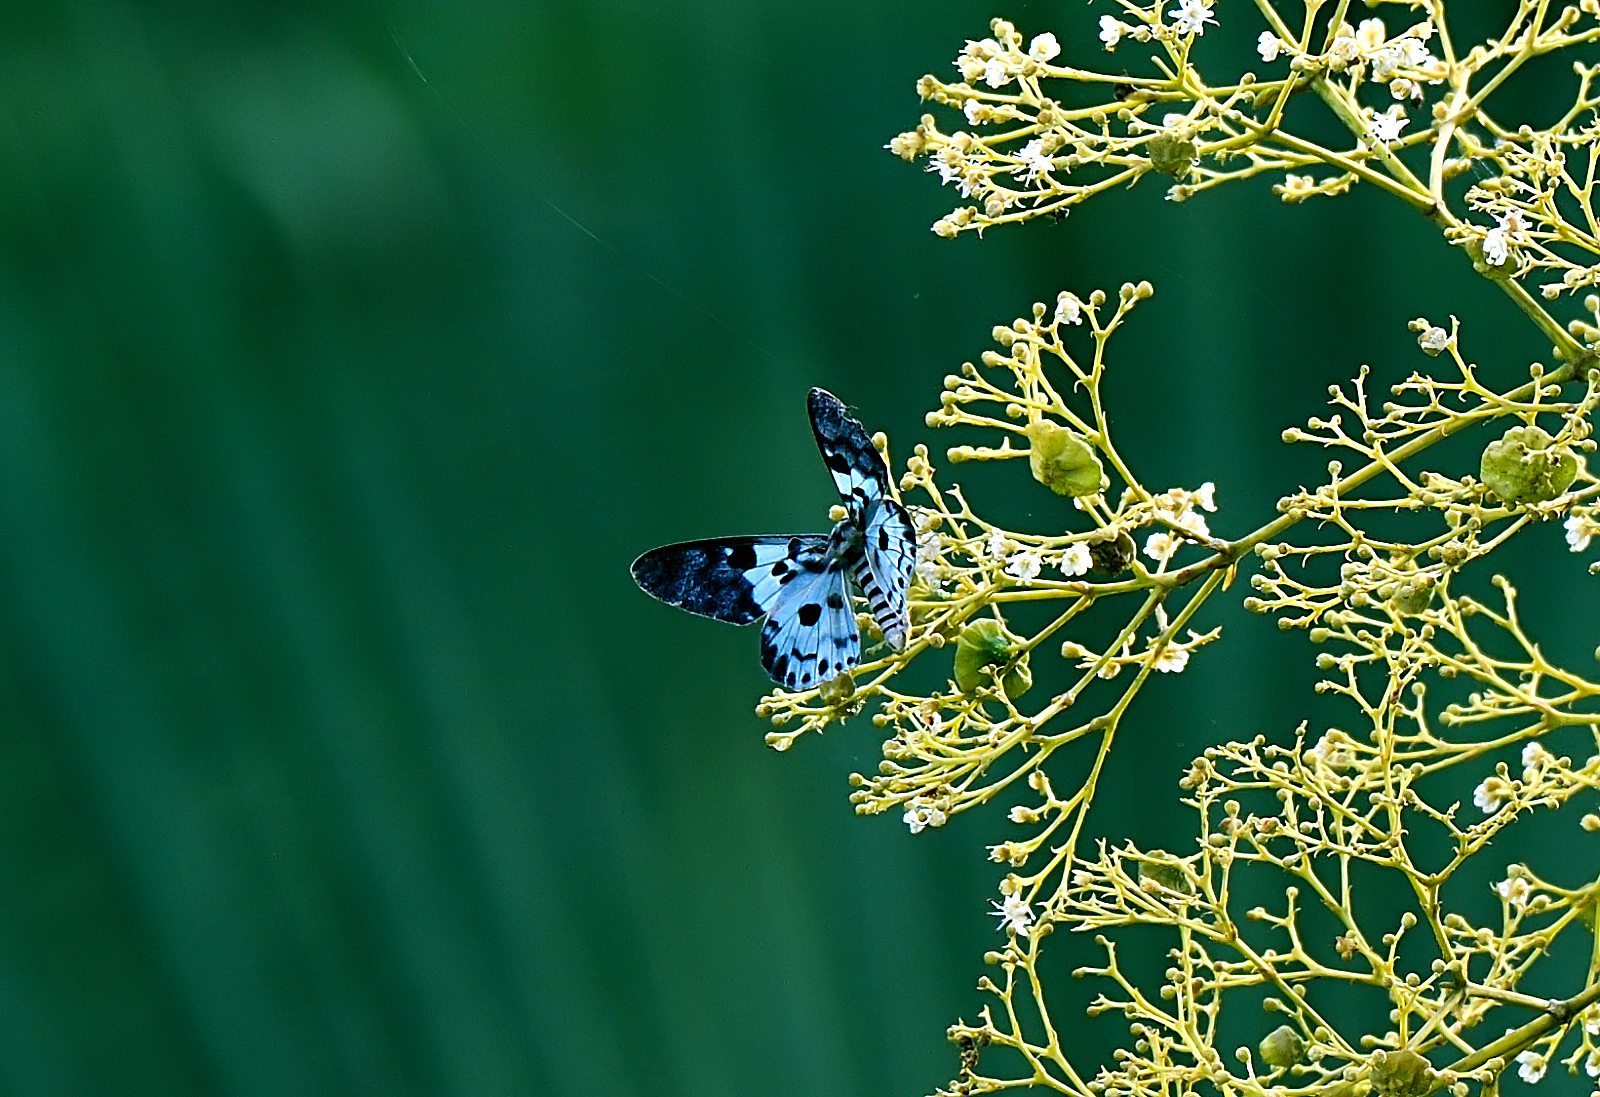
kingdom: Animalia
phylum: Arthropoda
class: Insecta
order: Lepidoptera
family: Geometridae
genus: Dysphania
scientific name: Dysphania percota
